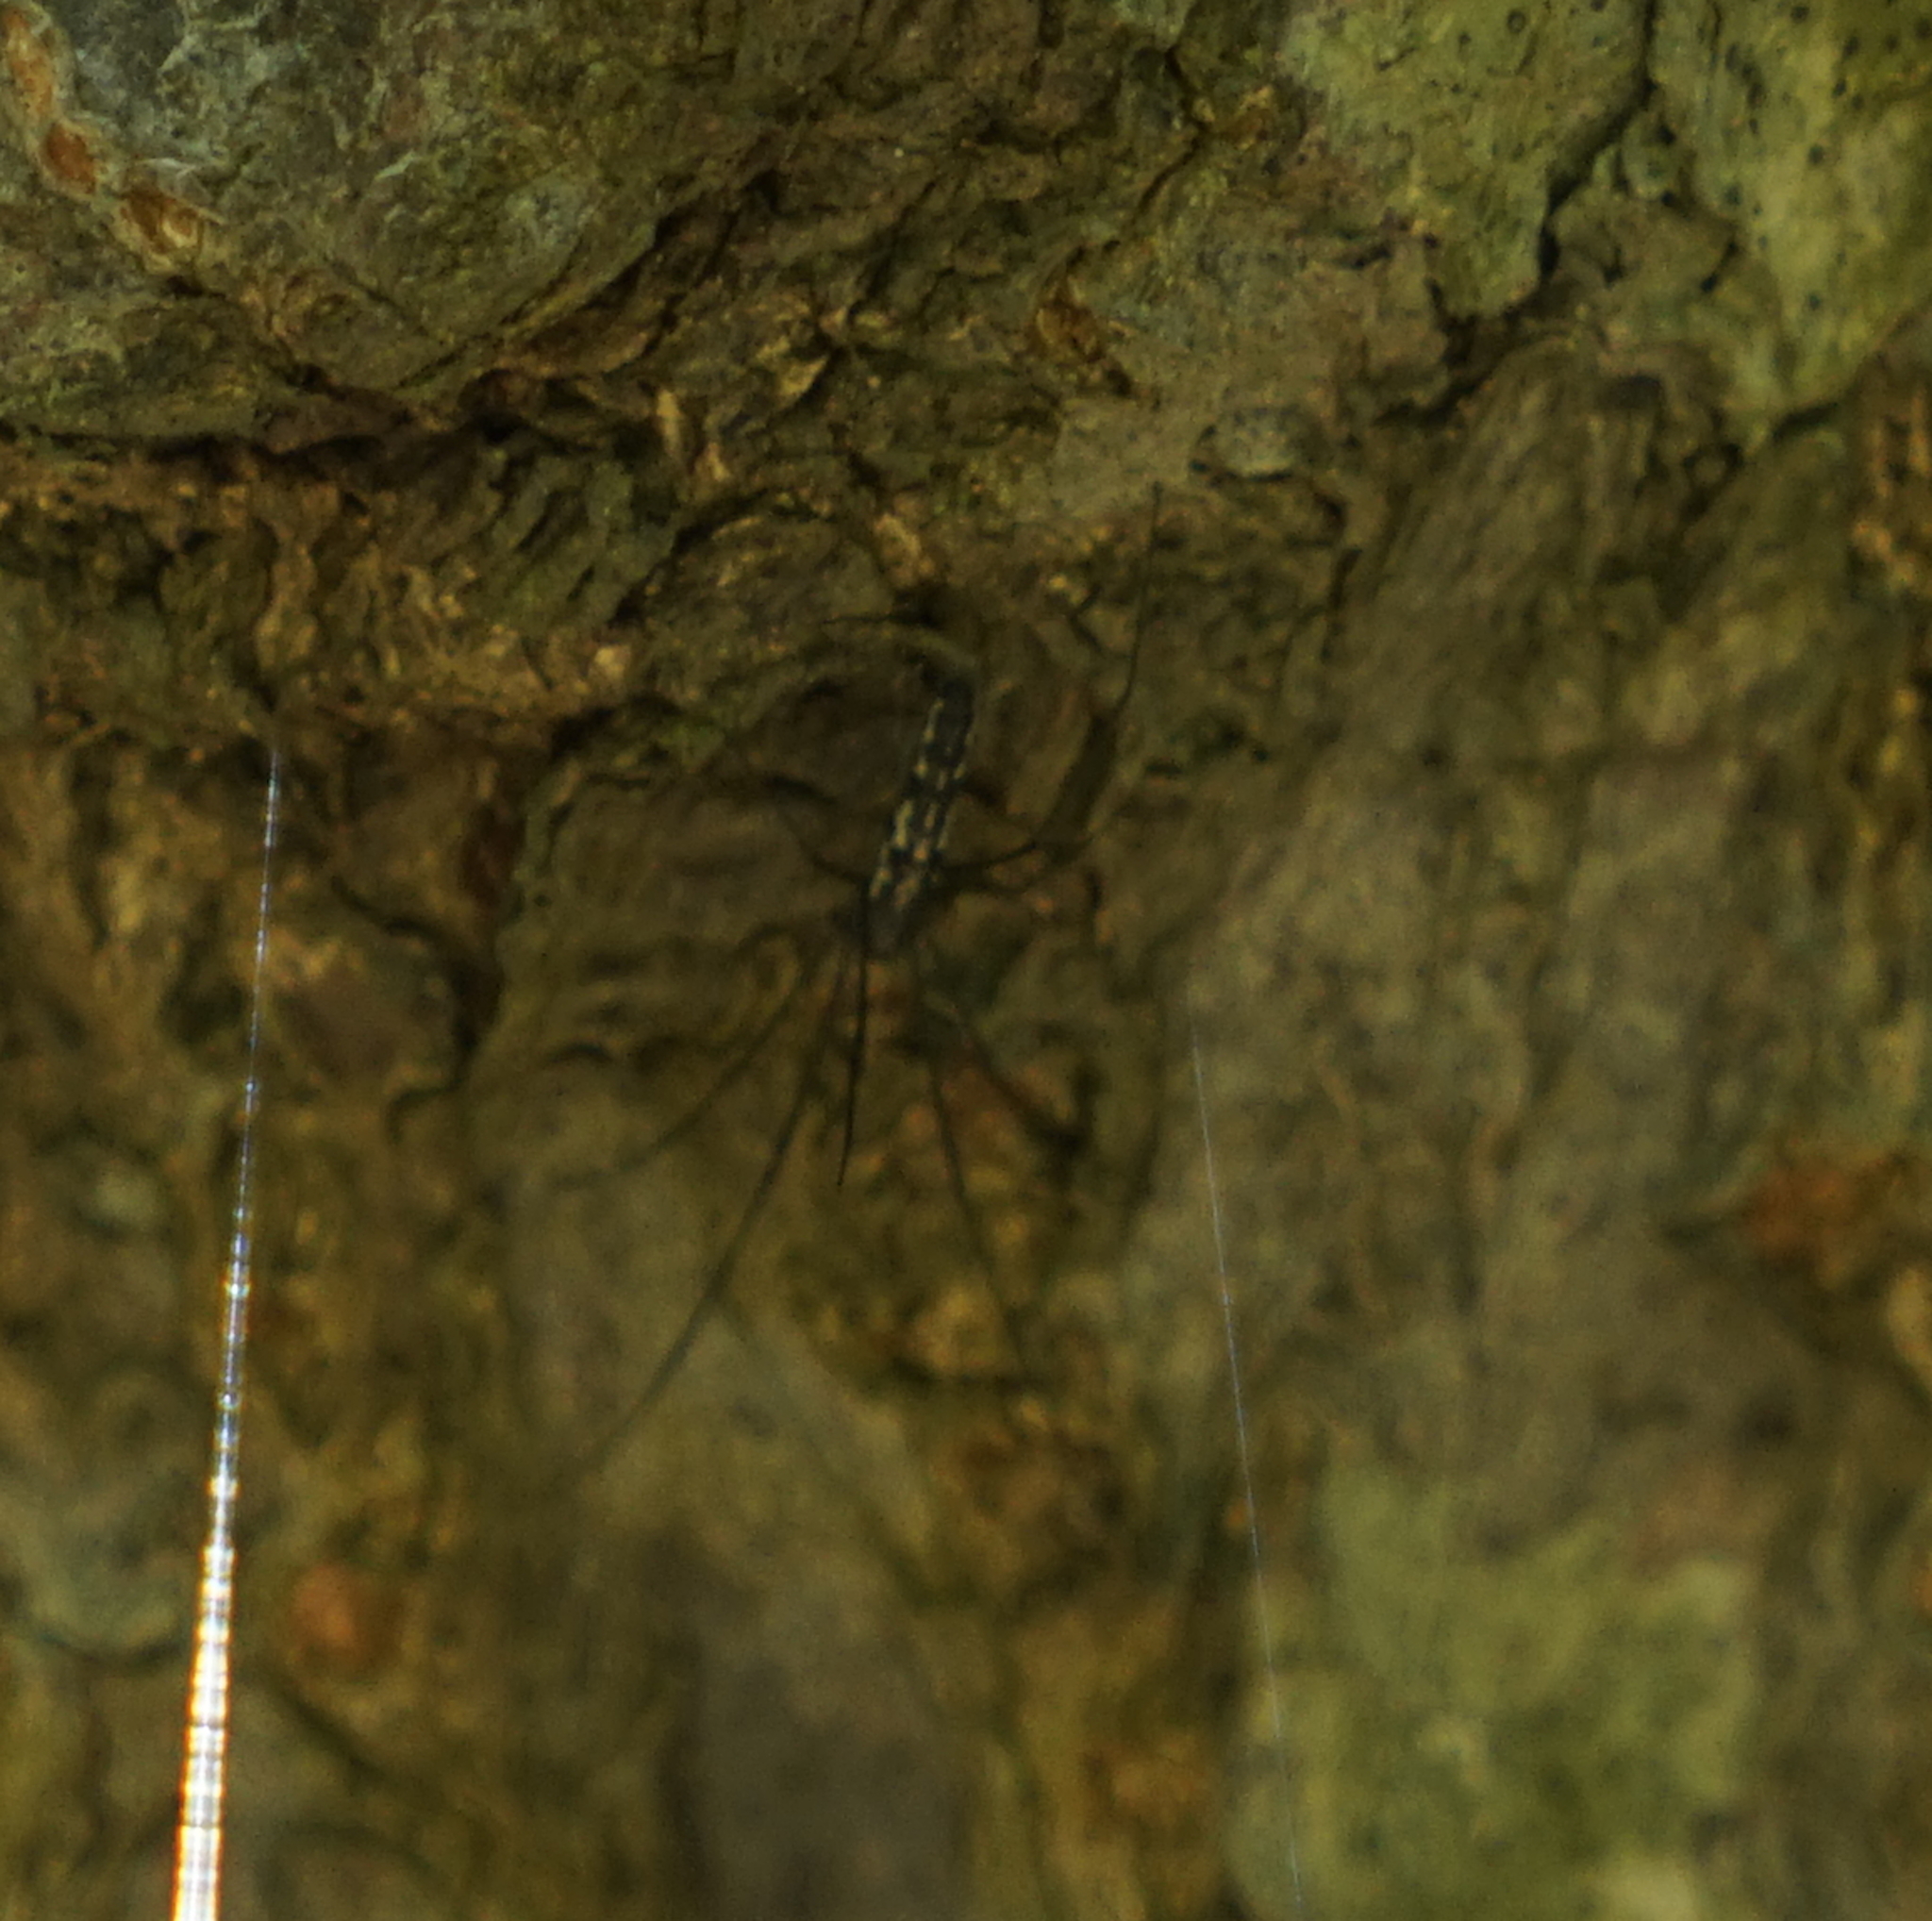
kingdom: Animalia
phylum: Arthropoda
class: Arachnida
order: Araneae
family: Psechridae
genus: Psechrus
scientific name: Psechrus
